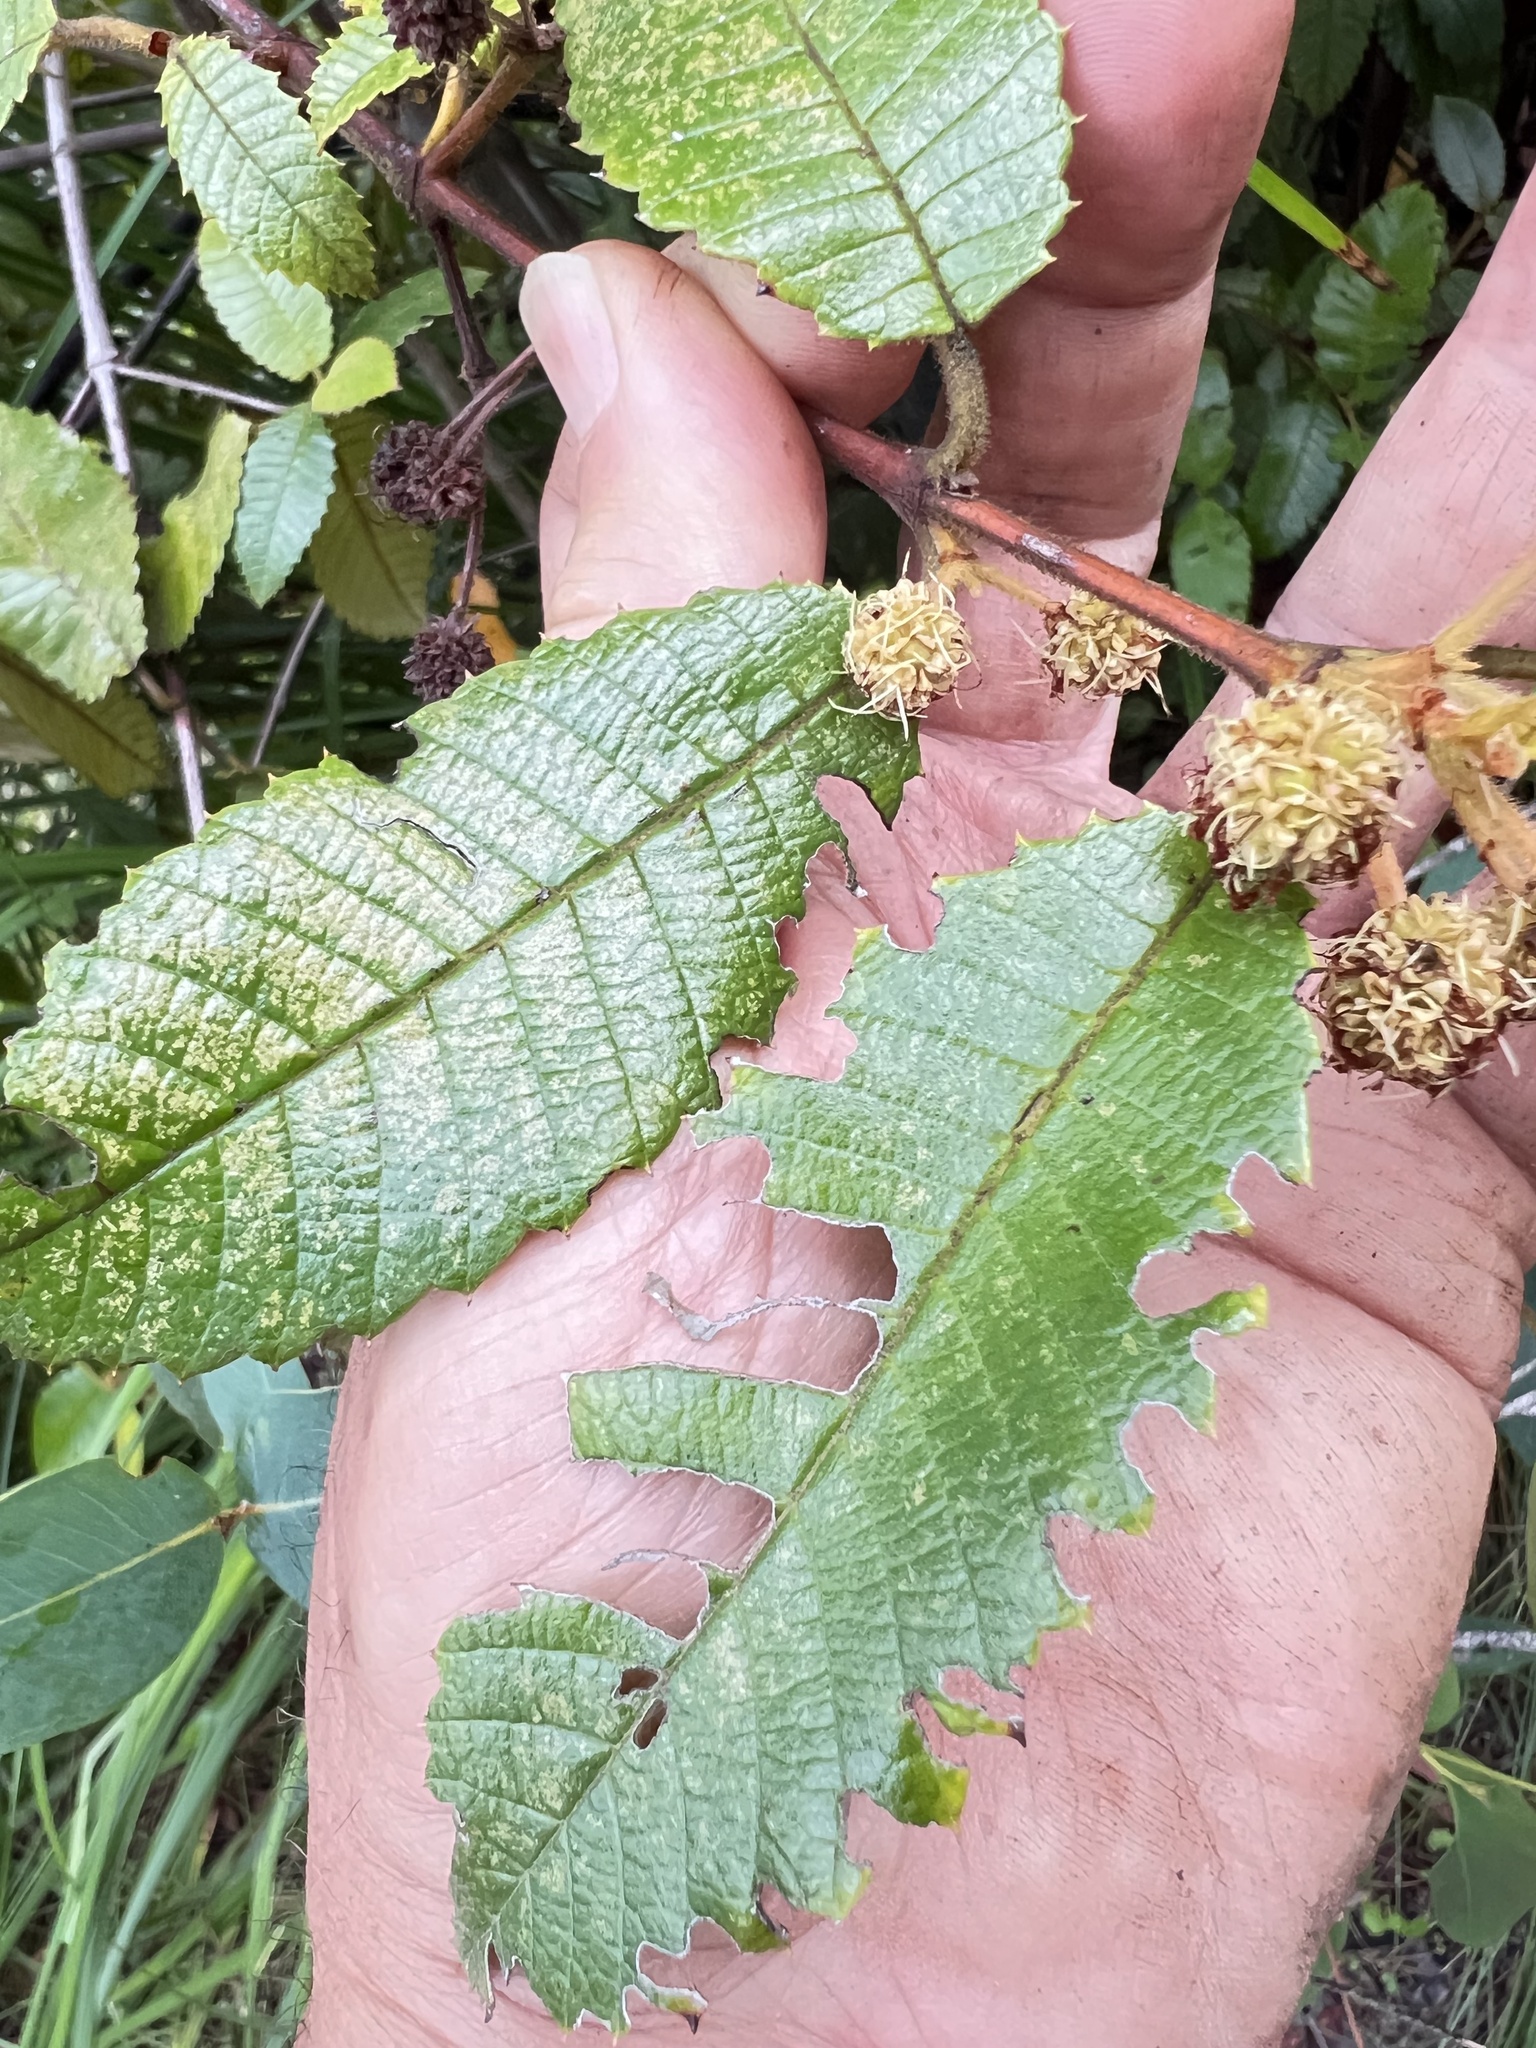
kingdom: Plantae
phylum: Tracheophyta
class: Magnoliopsida
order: Oxalidales
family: Cunoniaceae
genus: Callicoma
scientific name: Callicoma serratifolia
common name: Black wattle
